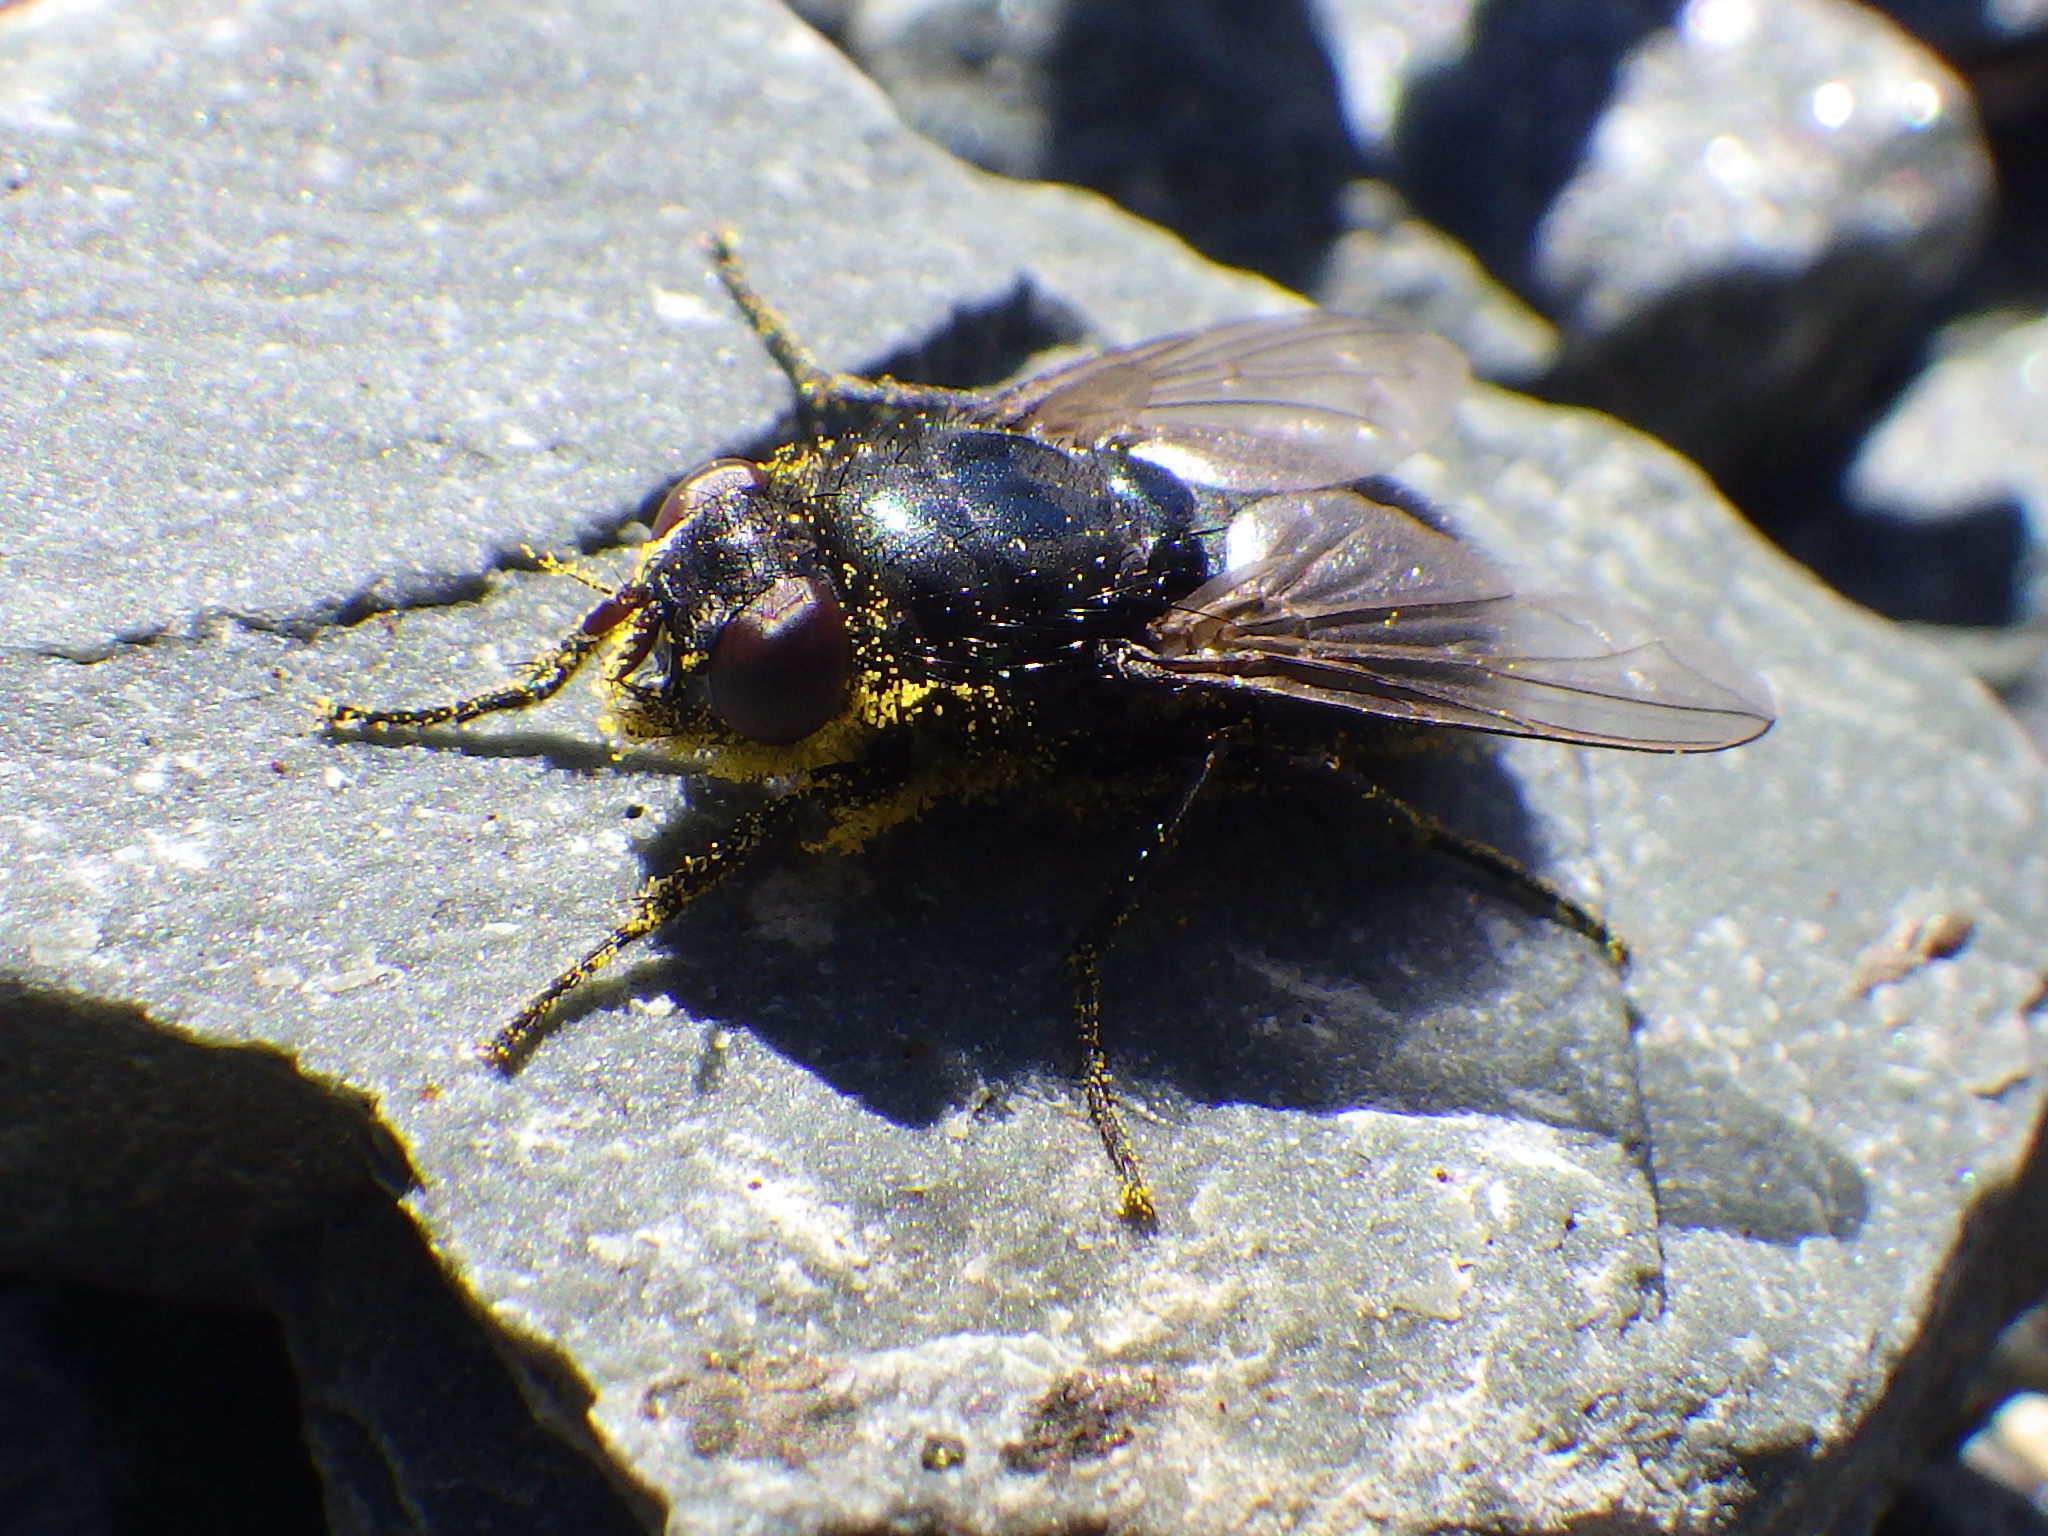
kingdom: Animalia
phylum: Arthropoda
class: Insecta
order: Diptera
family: Calliphoridae
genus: Protophormia
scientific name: Protophormia terraenovae
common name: Blackbottle
